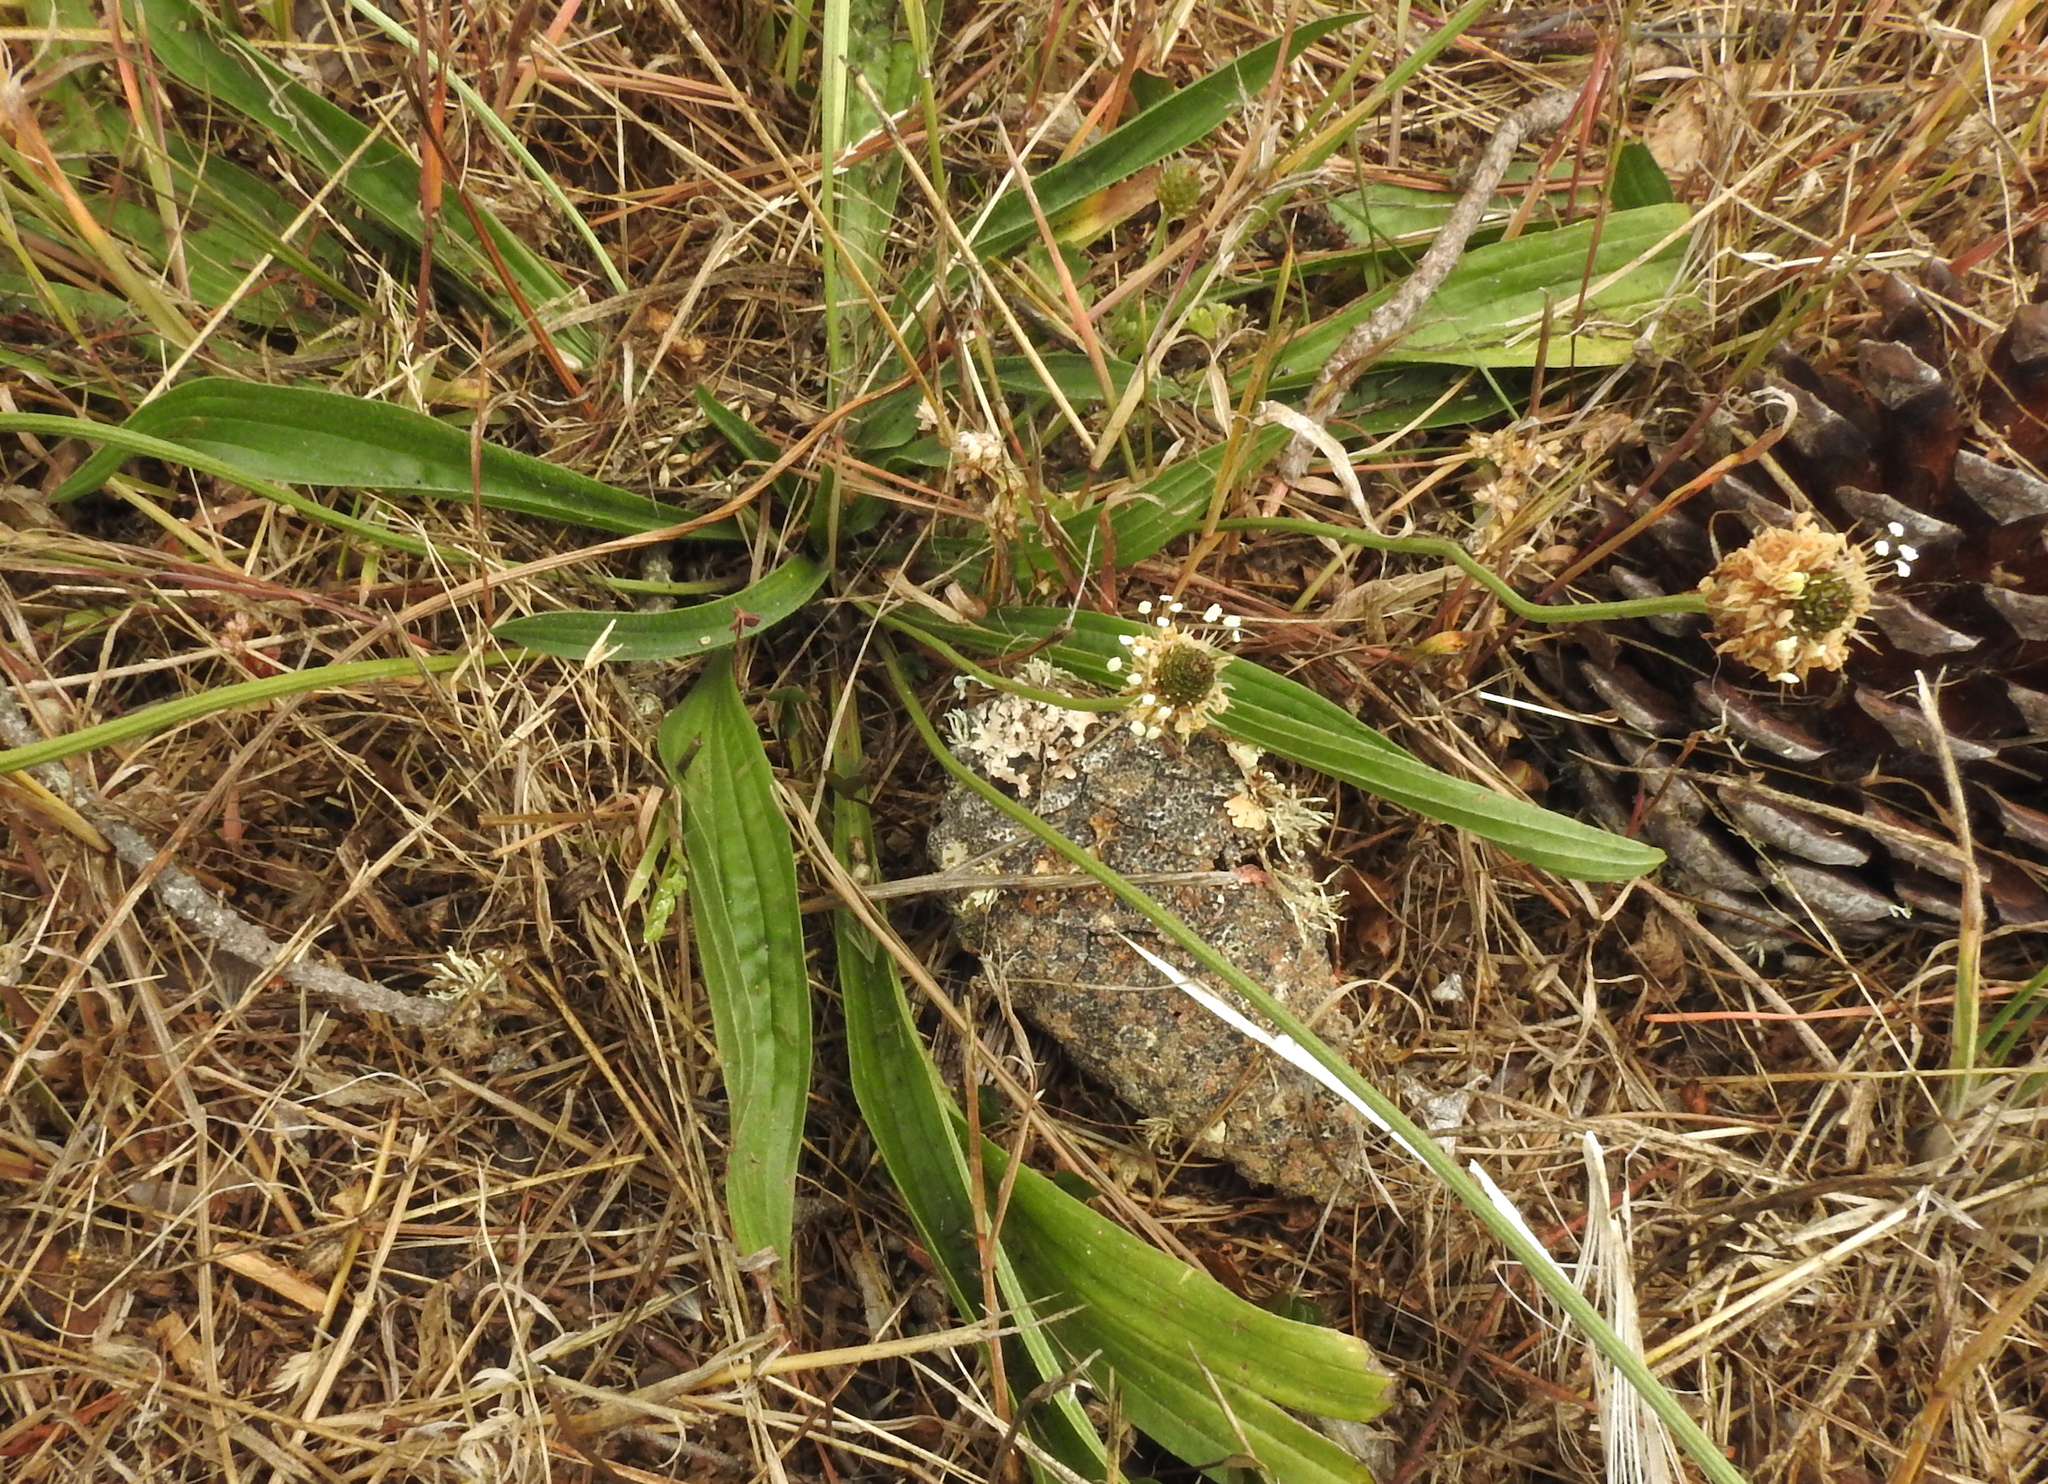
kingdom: Plantae
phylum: Tracheophyta
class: Magnoliopsida
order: Lamiales
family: Plantaginaceae
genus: Plantago
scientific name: Plantago lanceolata
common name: Ribwort plantain
